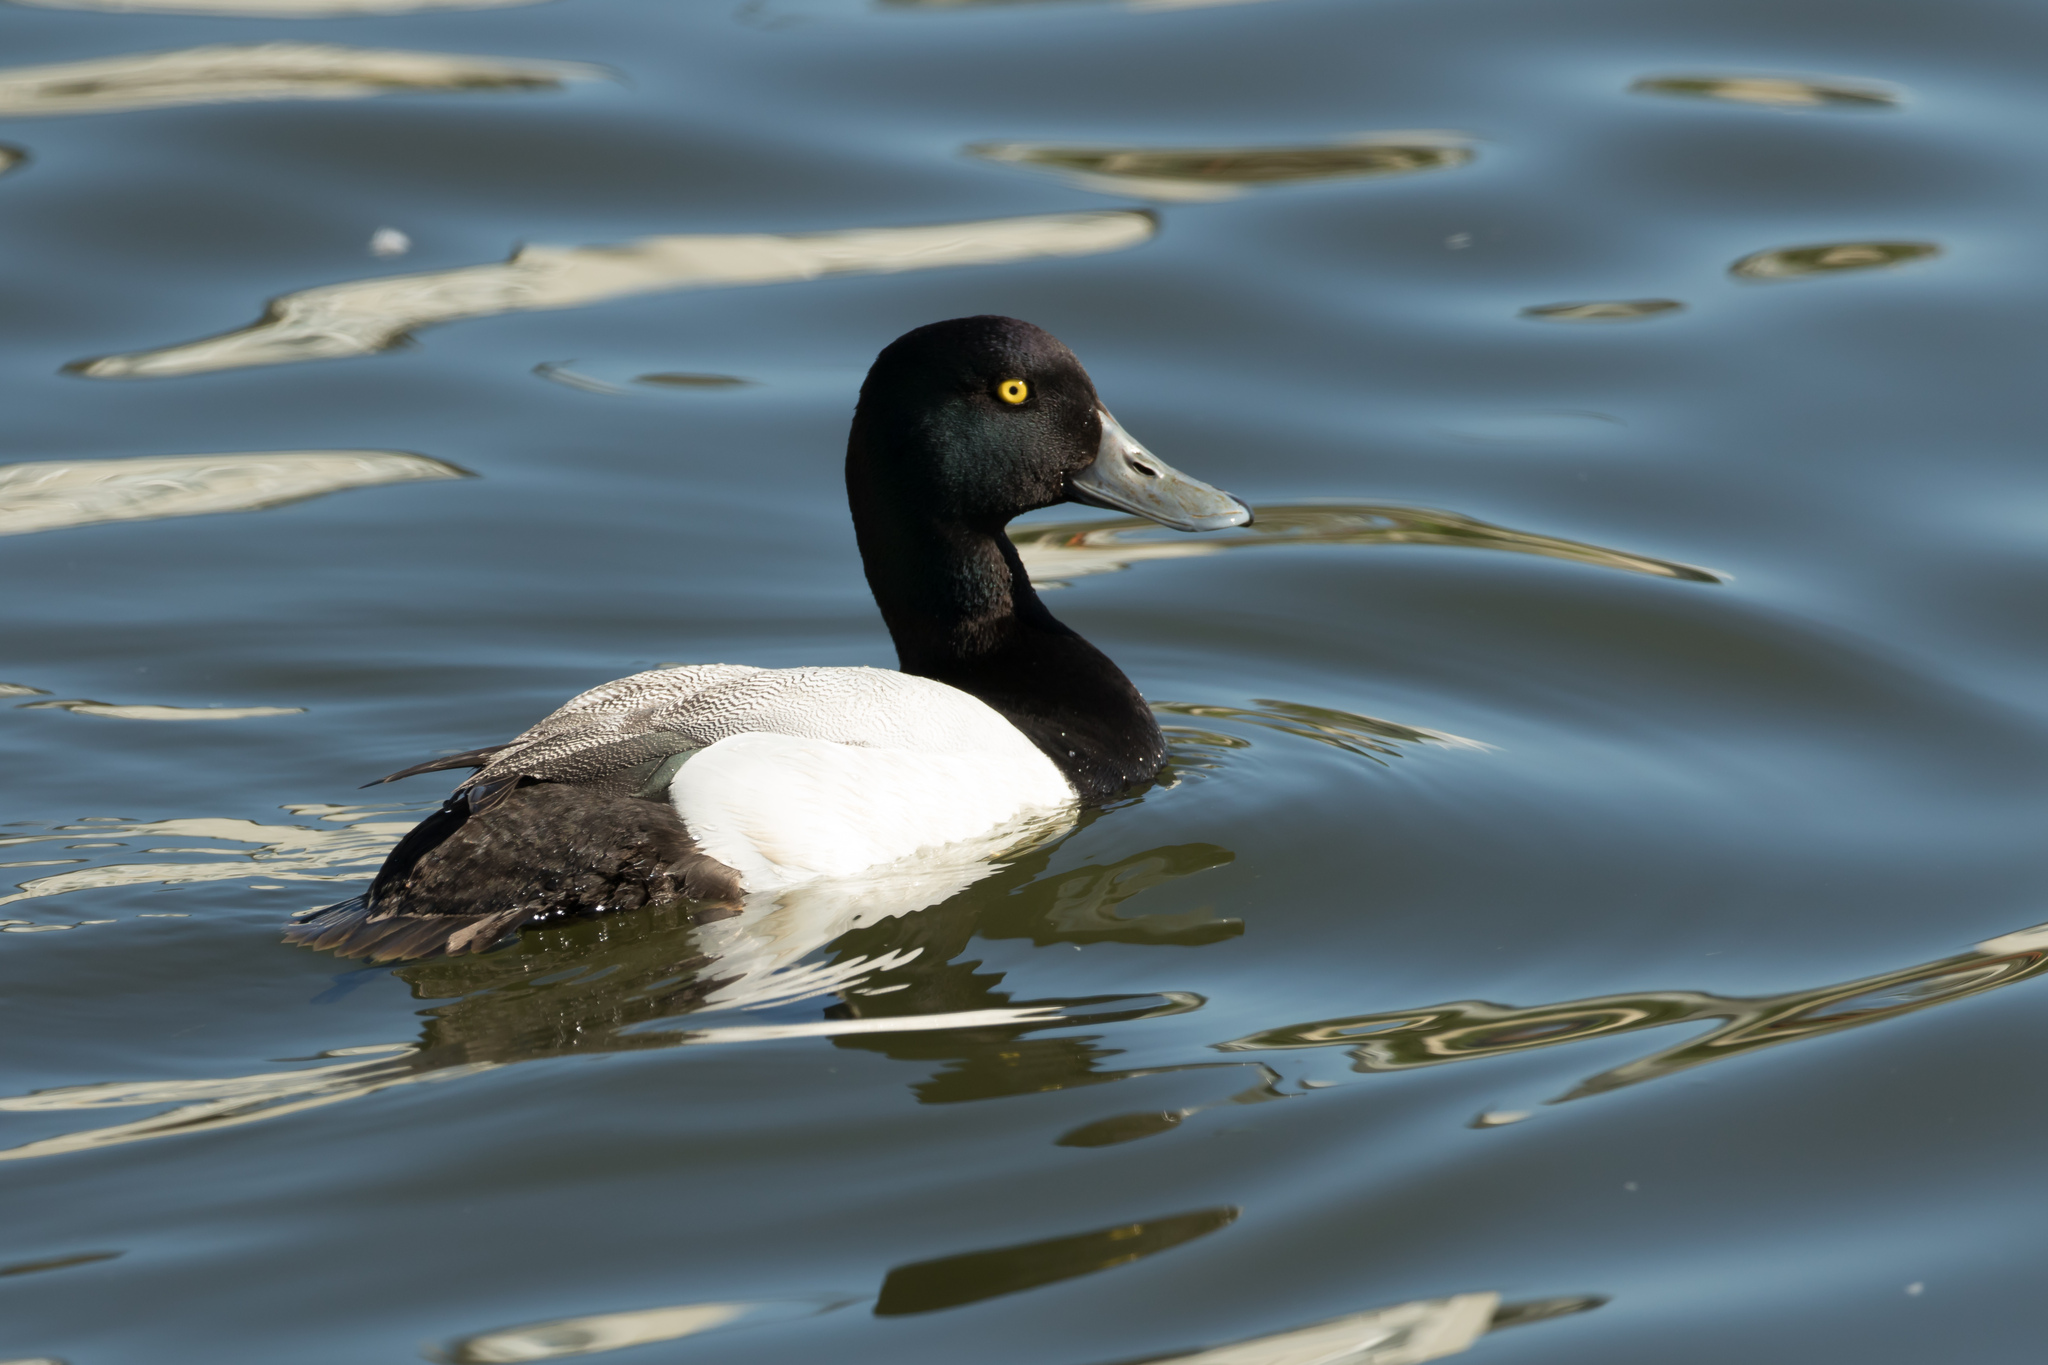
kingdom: Animalia
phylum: Chordata
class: Aves
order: Anseriformes
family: Anatidae
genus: Aythya
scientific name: Aythya marila
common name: Greater scaup
